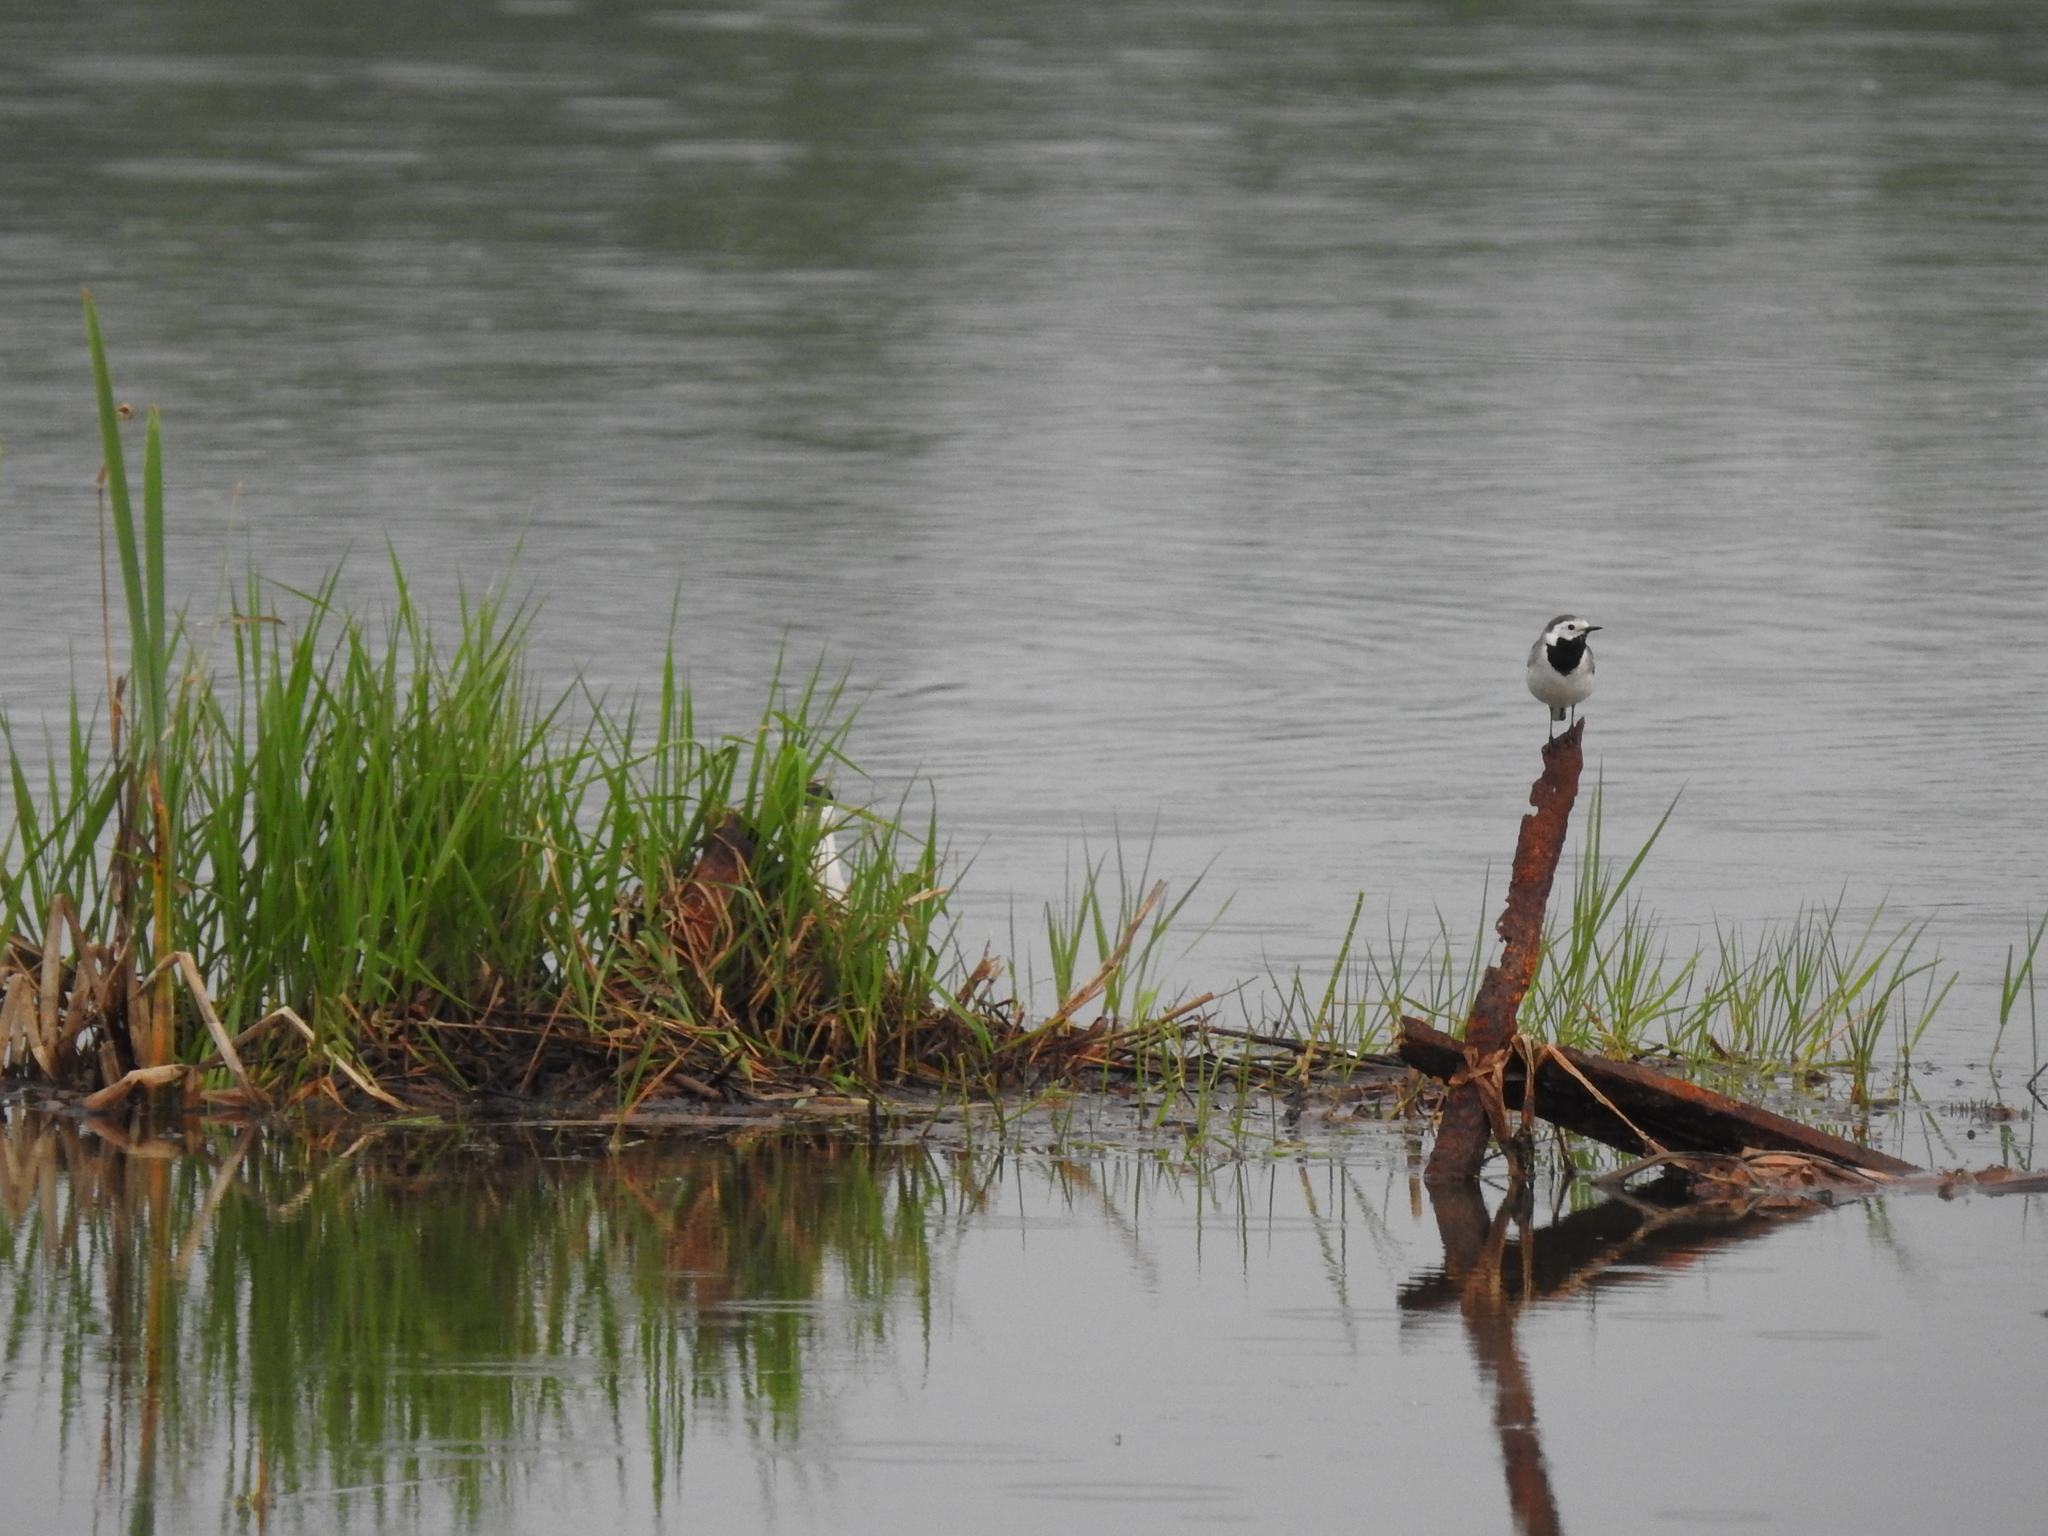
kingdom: Animalia
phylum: Chordata
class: Aves
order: Passeriformes
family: Motacillidae
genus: Motacilla
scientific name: Motacilla alba
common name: White wagtail
